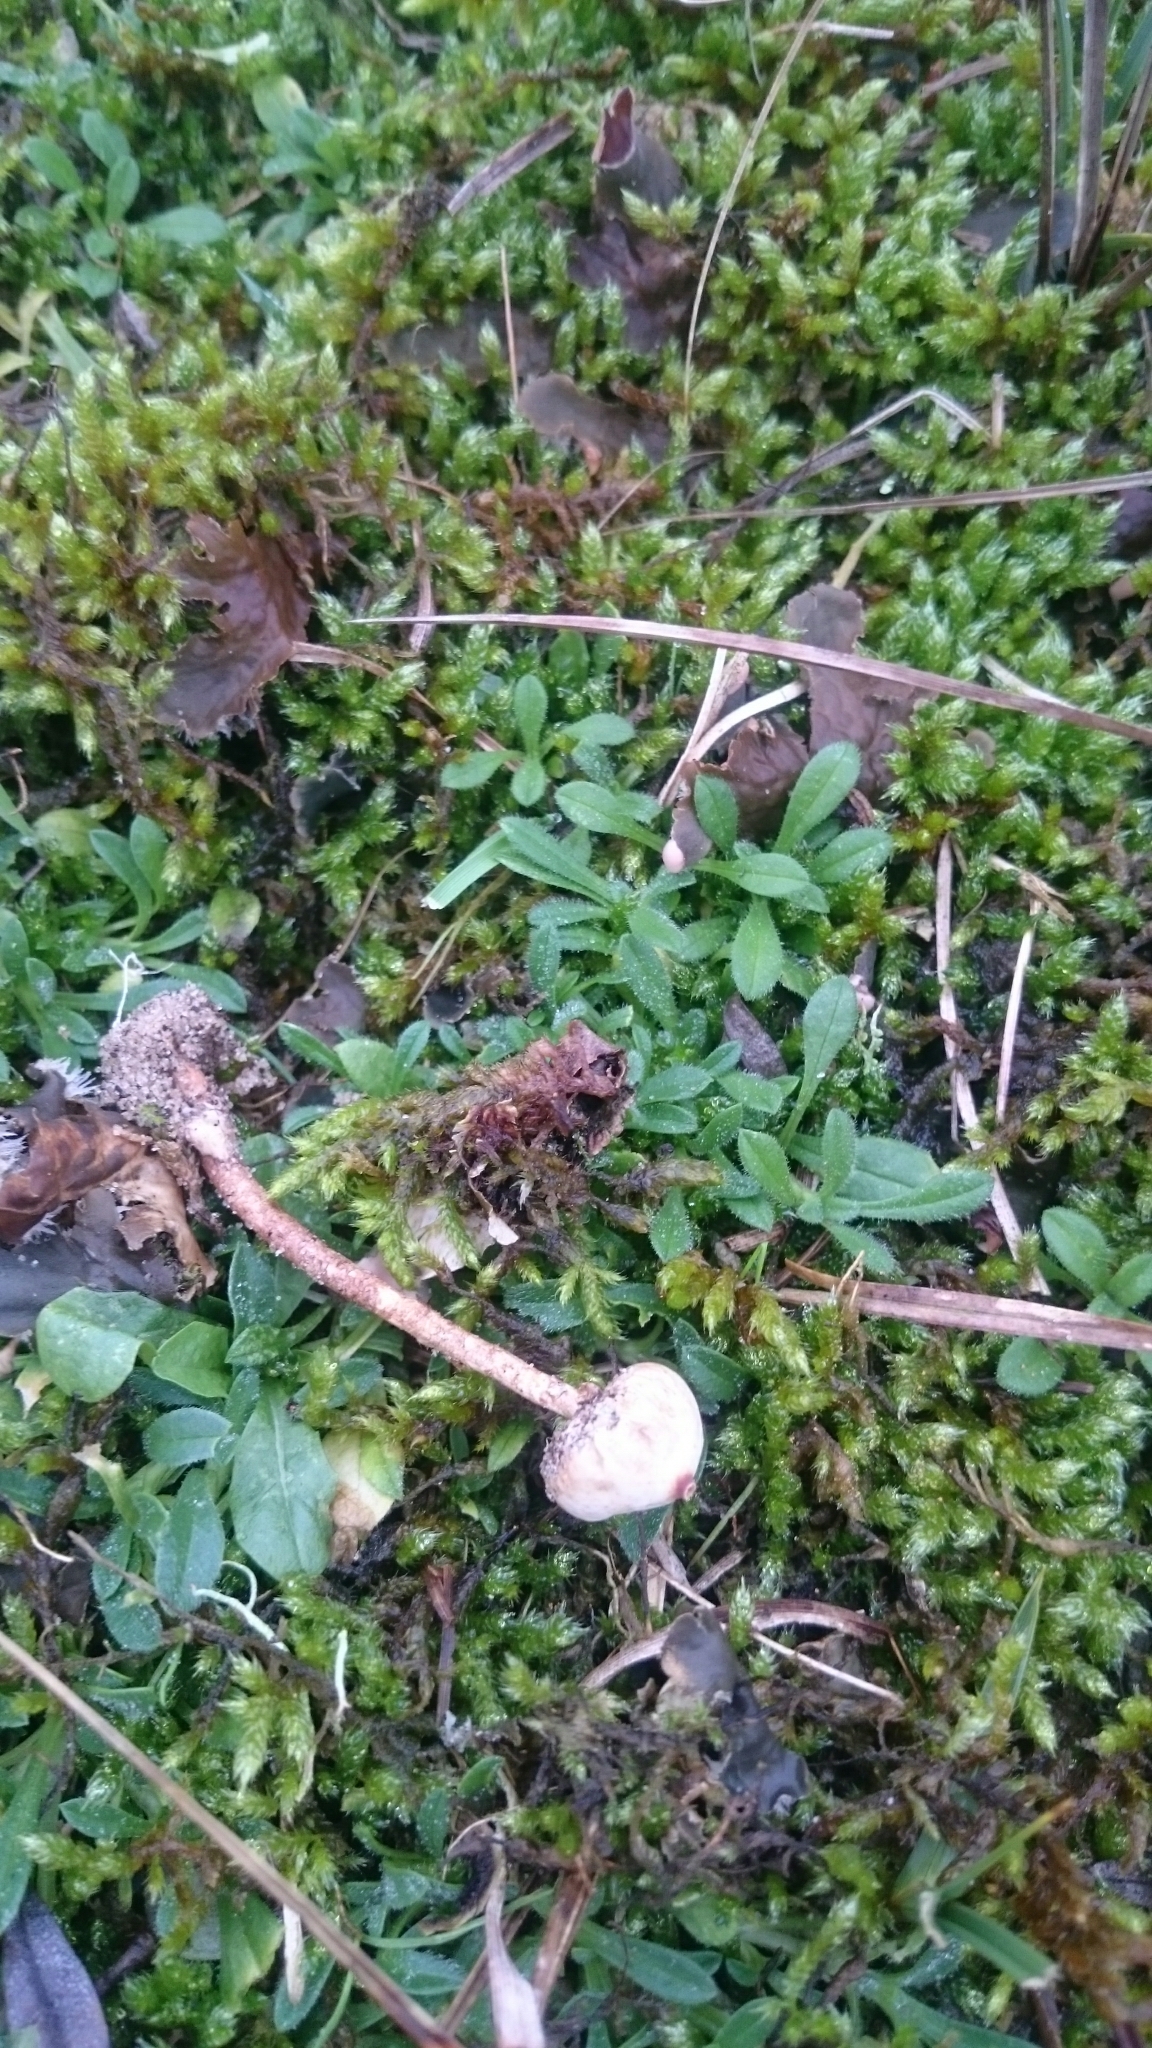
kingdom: Fungi
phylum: Basidiomycota
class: Agaricomycetes
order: Agaricales
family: Agaricaceae
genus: Tulostoma
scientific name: Tulostoma brumale
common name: Winter stalk puffball
